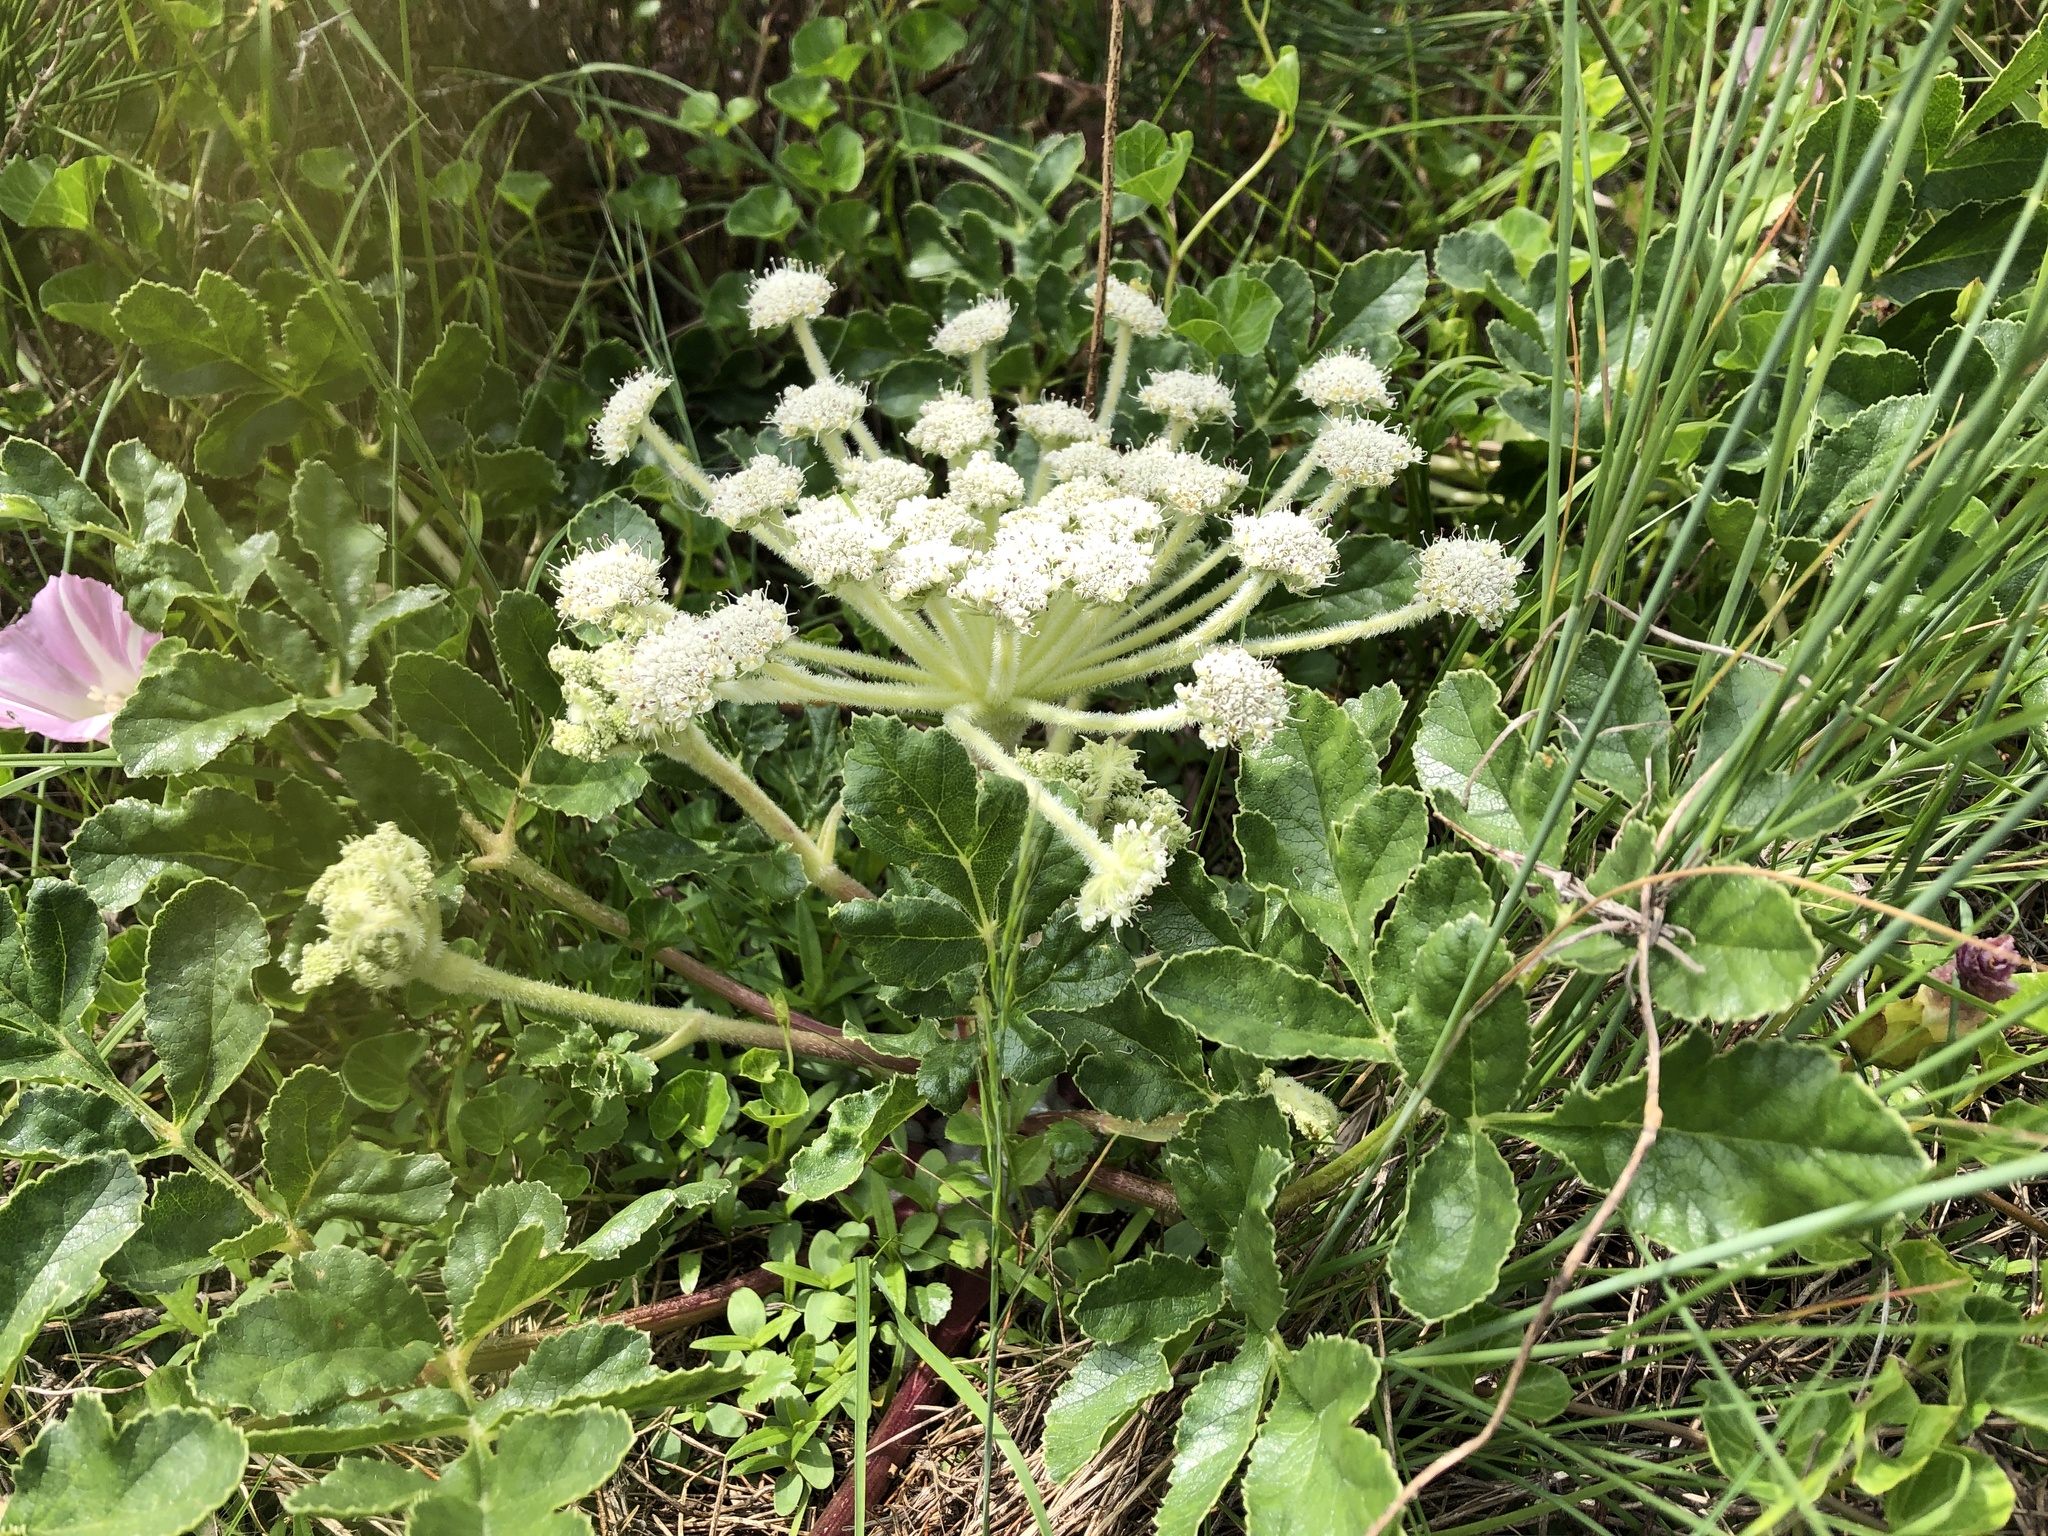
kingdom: Plantae
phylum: Tracheophyta
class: Magnoliopsida
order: Apiales
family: Apiaceae
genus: Glehnia
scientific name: Glehnia littoralis
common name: Beach silvertop
